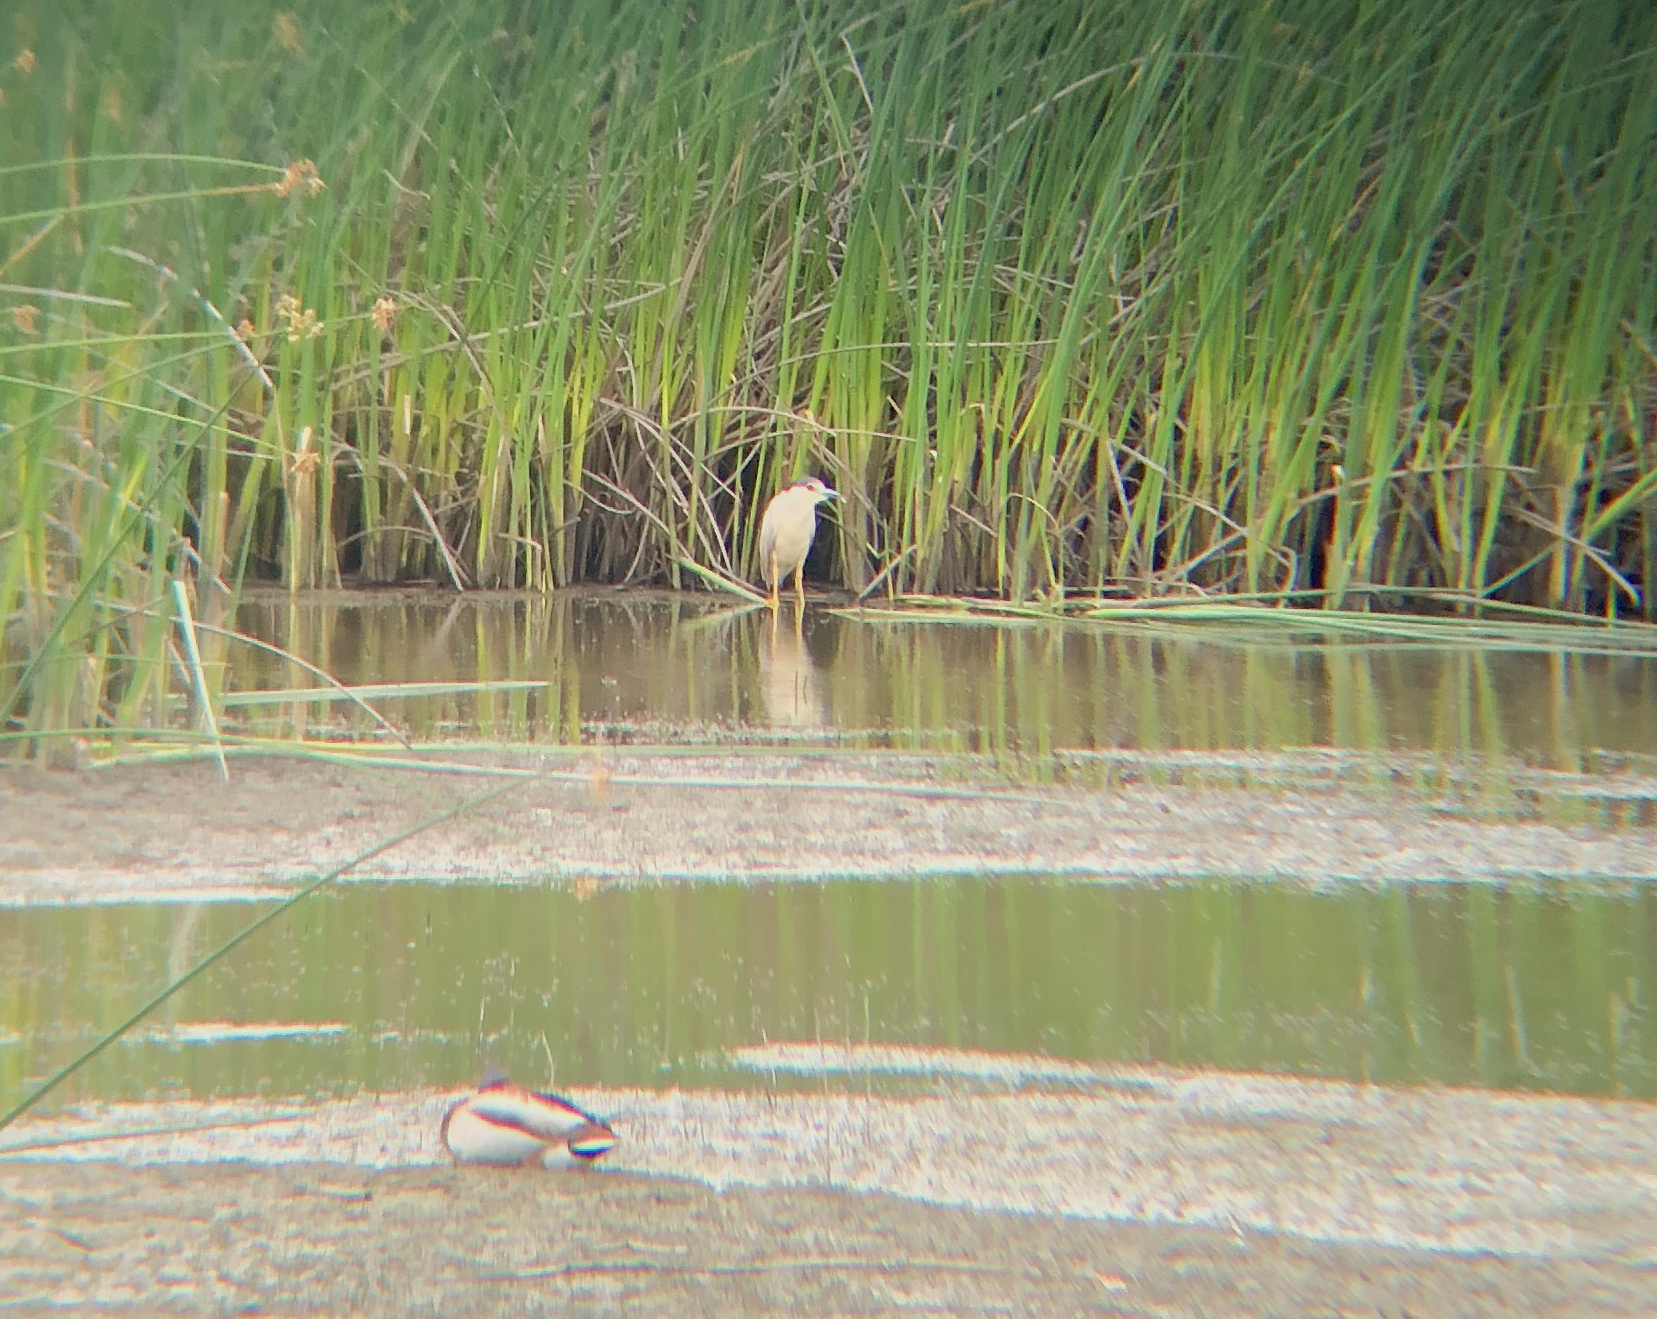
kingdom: Animalia
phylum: Chordata
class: Aves
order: Pelecaniformes
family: Ardeidae
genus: Nycticorax
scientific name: Nycticorax nycticorax
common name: Black-crowned night heron
